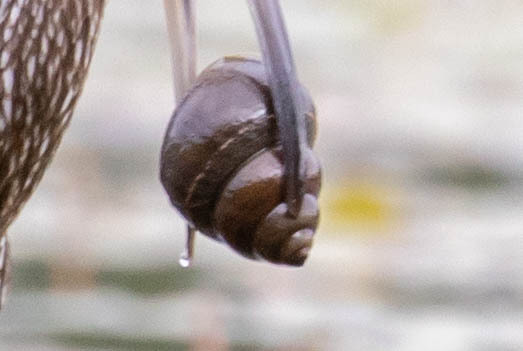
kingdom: Animalia
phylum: Mollusca
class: Gastropoda
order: Architaenioglossa
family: Viviparidae
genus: Cipangopaludina
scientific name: Cipangopaludina chinensis
